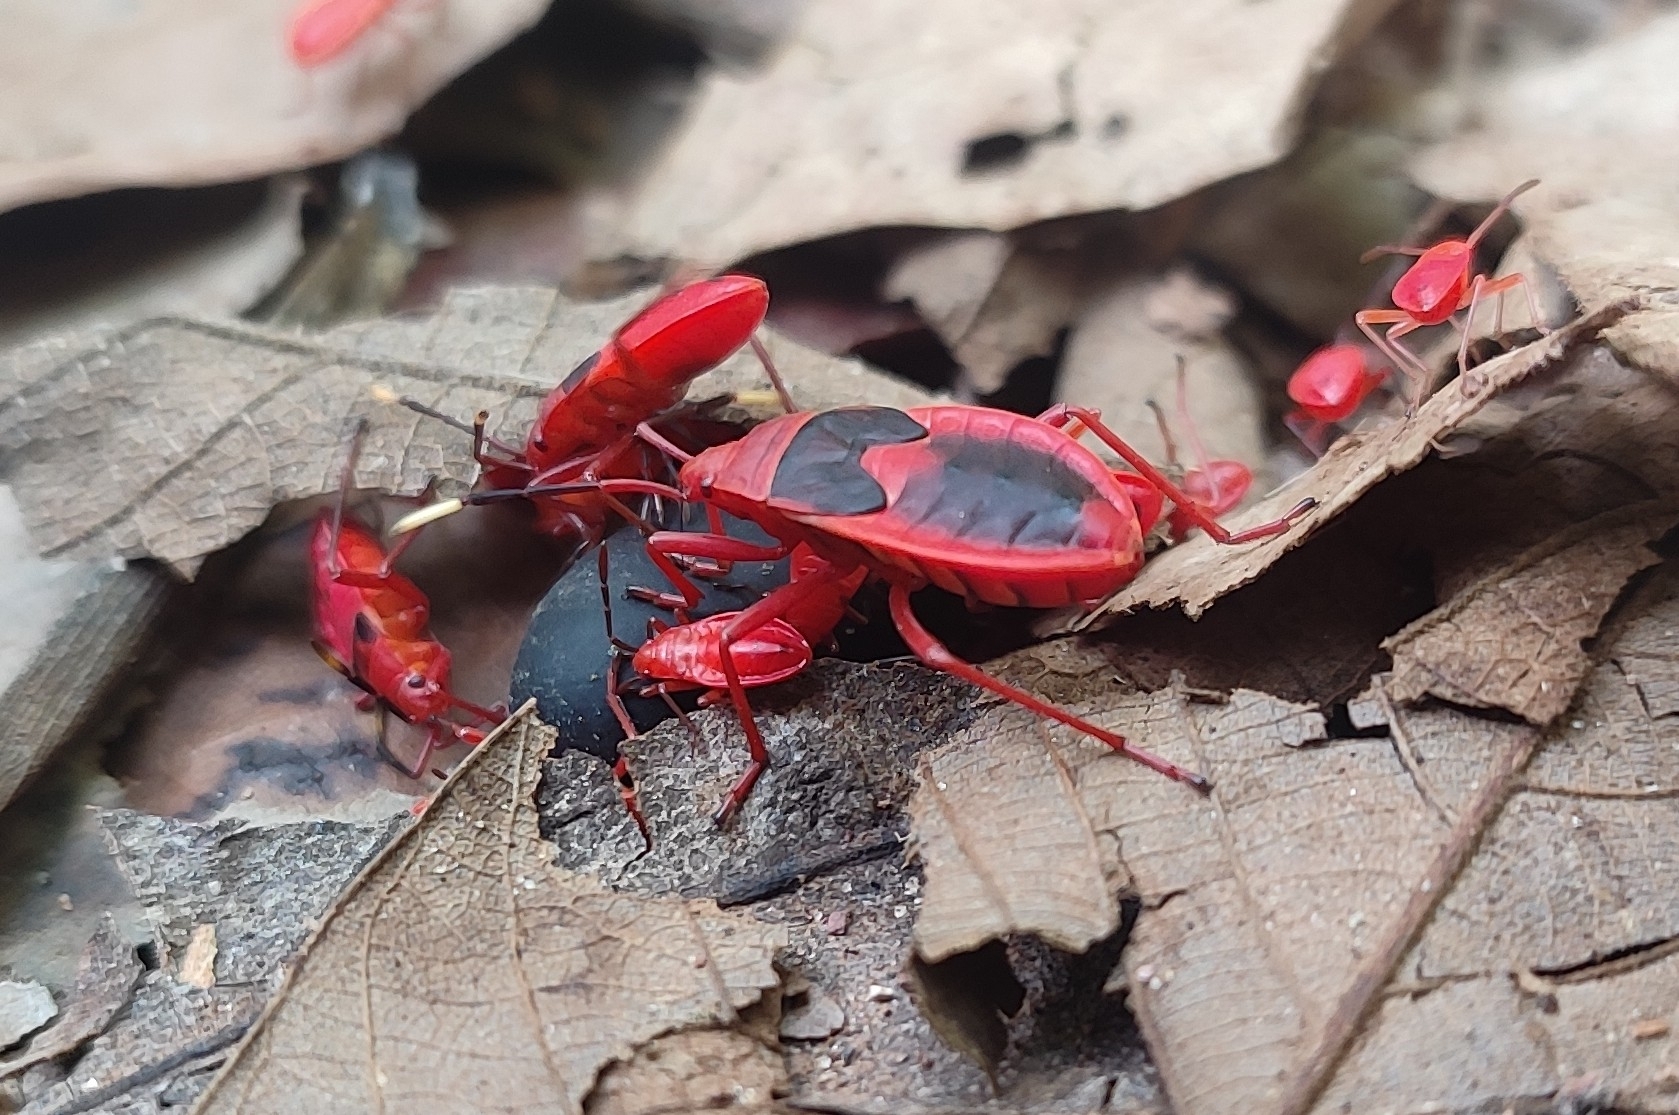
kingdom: Animalia
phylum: Arthropoda
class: Insecta
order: Hemiptera
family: Pyrrhocoridae
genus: Probergrothius
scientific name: Probergrothius
